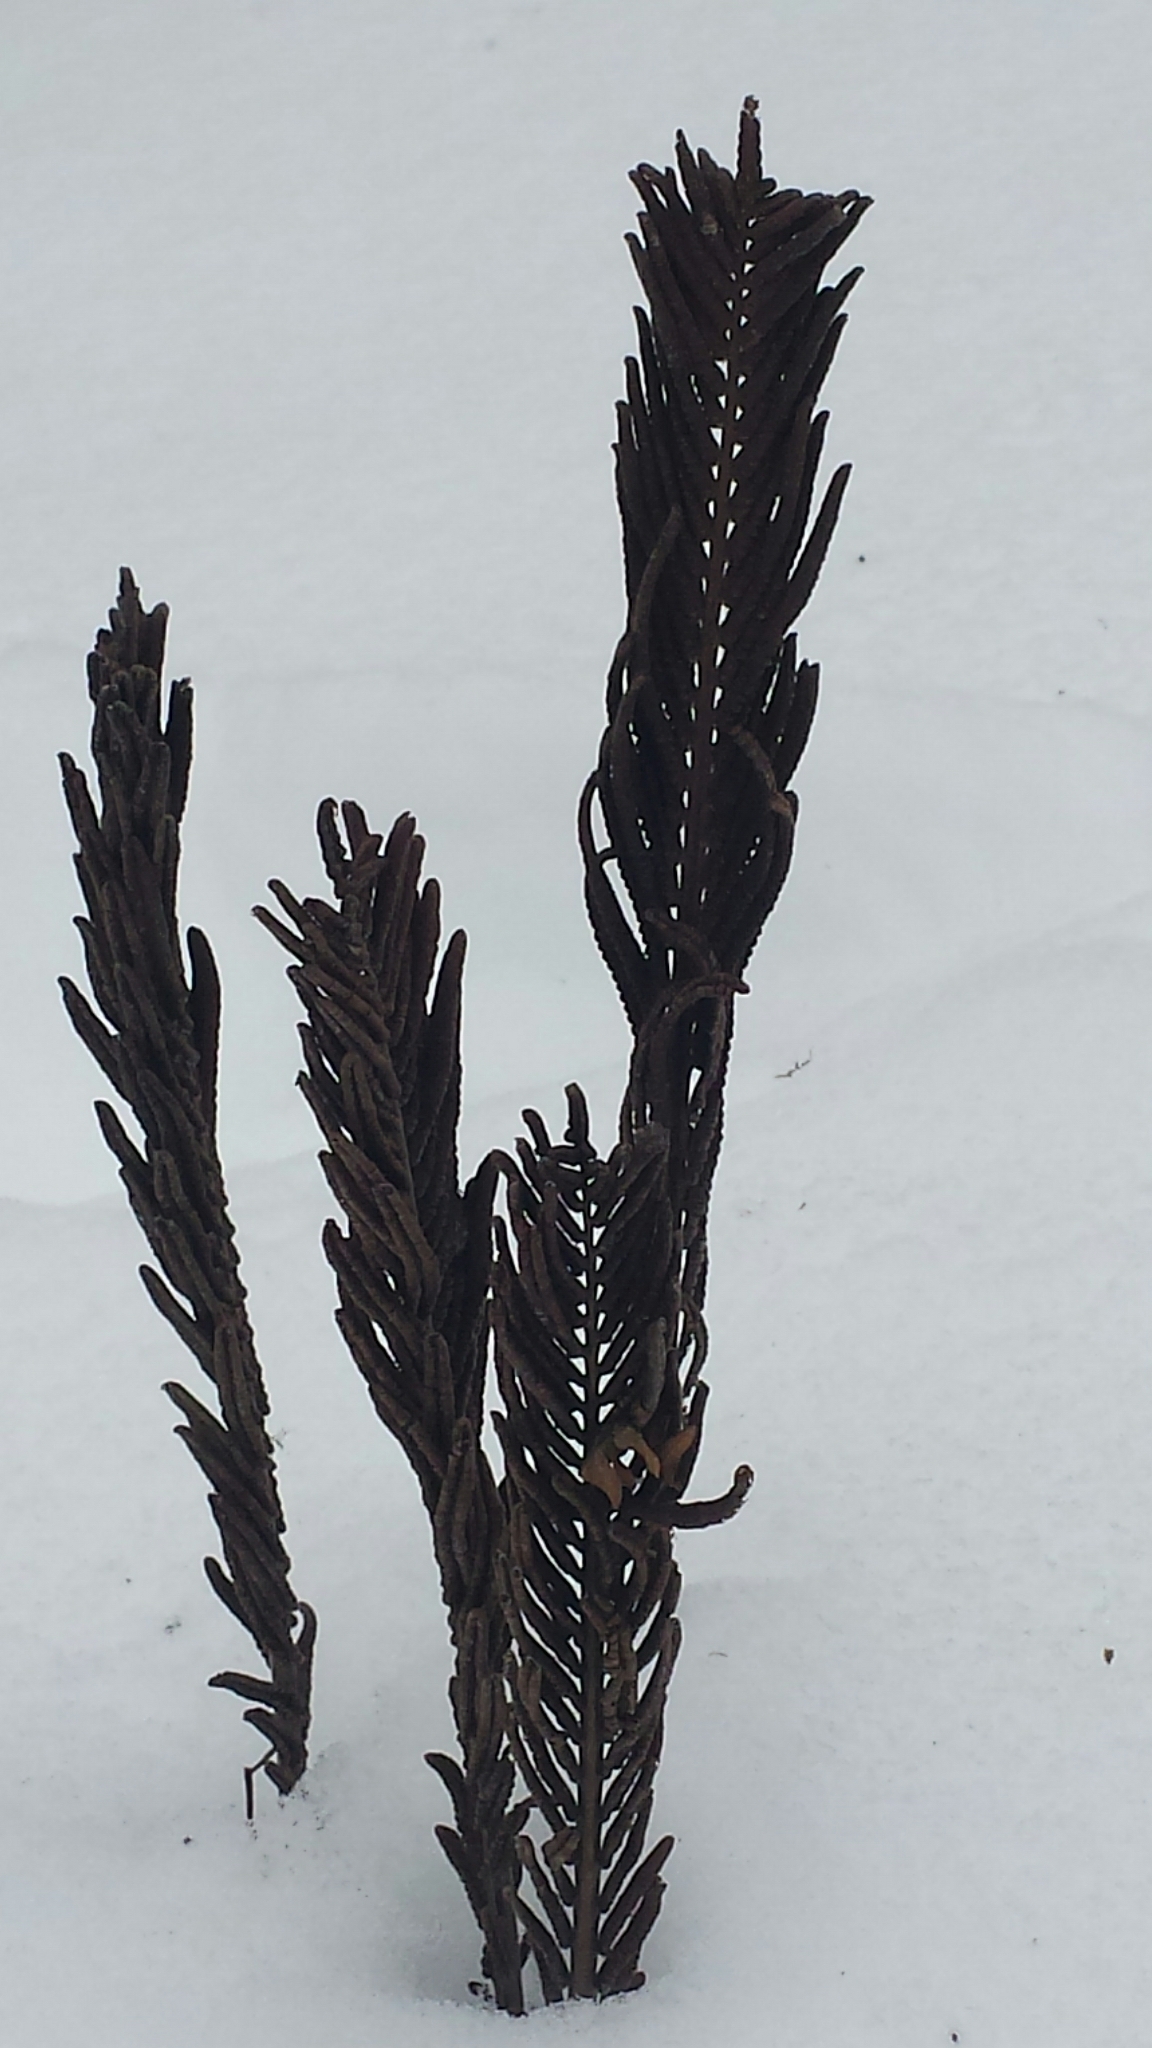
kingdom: Plantae
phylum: Tracheophyta
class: Polypodiopsida
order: Polypodiales
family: Onocleaceae
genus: Matteuccia
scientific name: Matteuccia struthiopteris
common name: Ostrich fern
